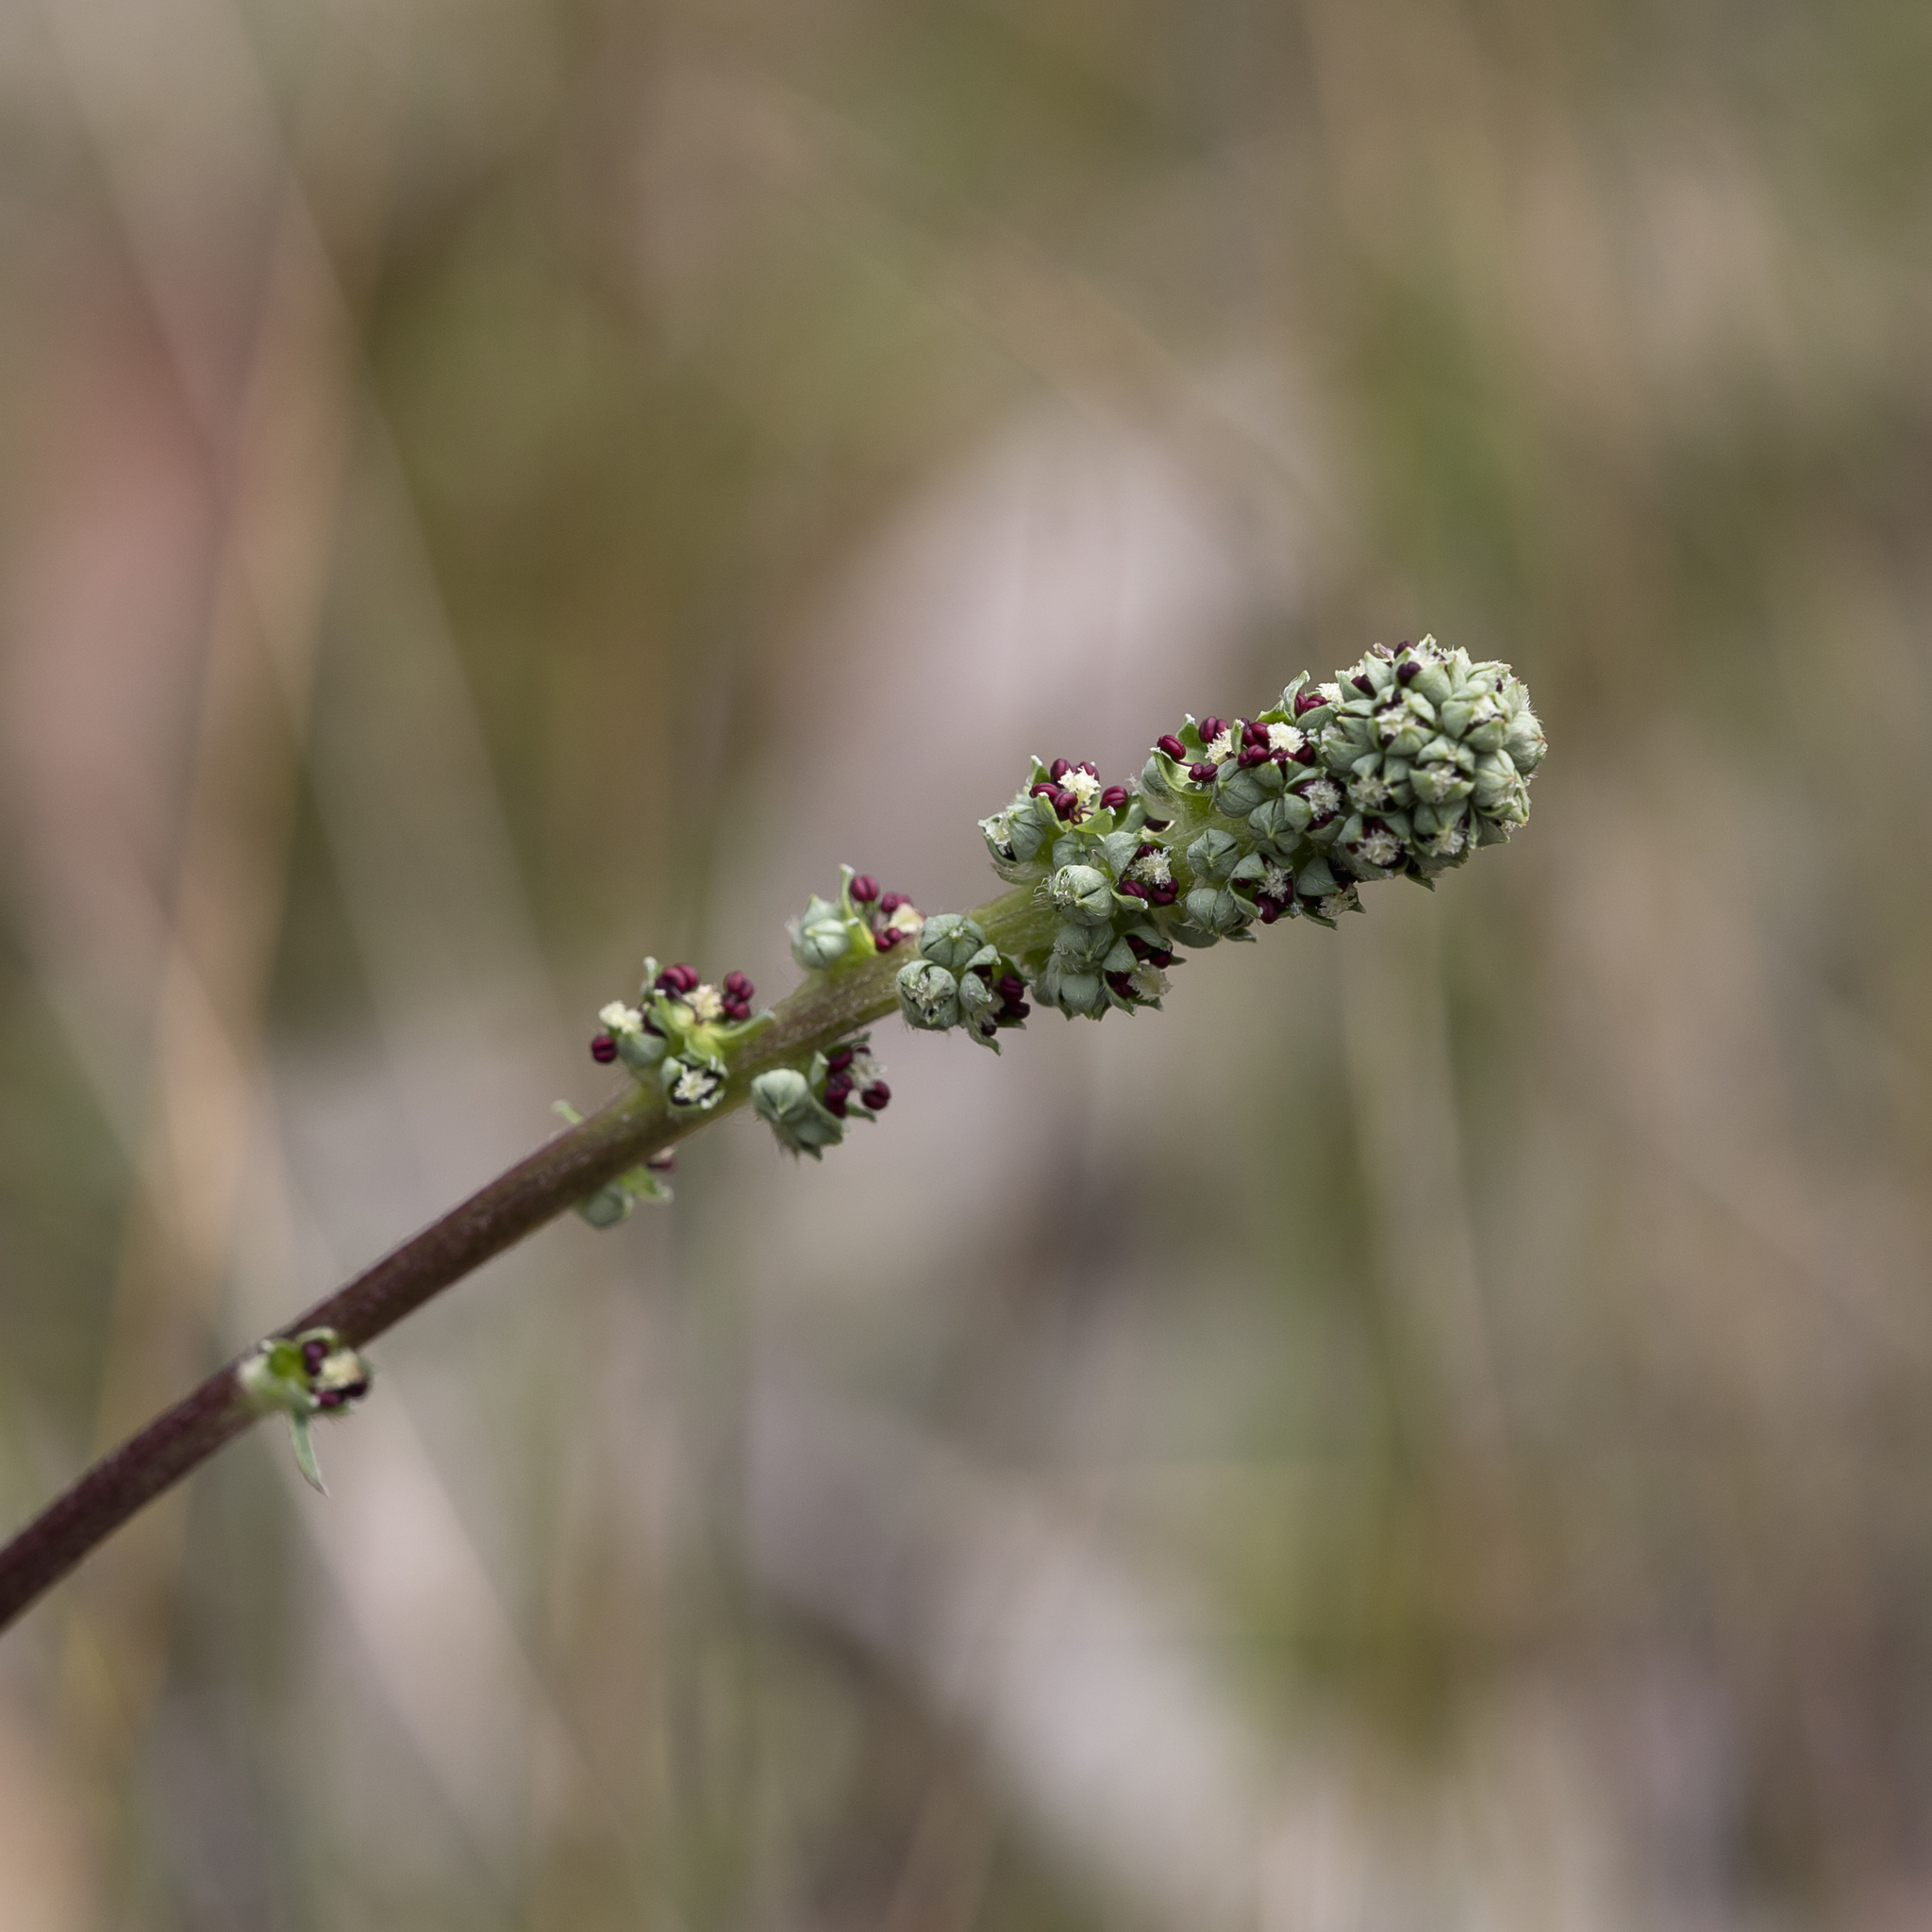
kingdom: Plantae
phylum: Tracheophyta
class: Magnoliopsida
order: Rosales
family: Rosaceae
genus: Acaena
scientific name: Acaena echinata
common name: Sheepbur
